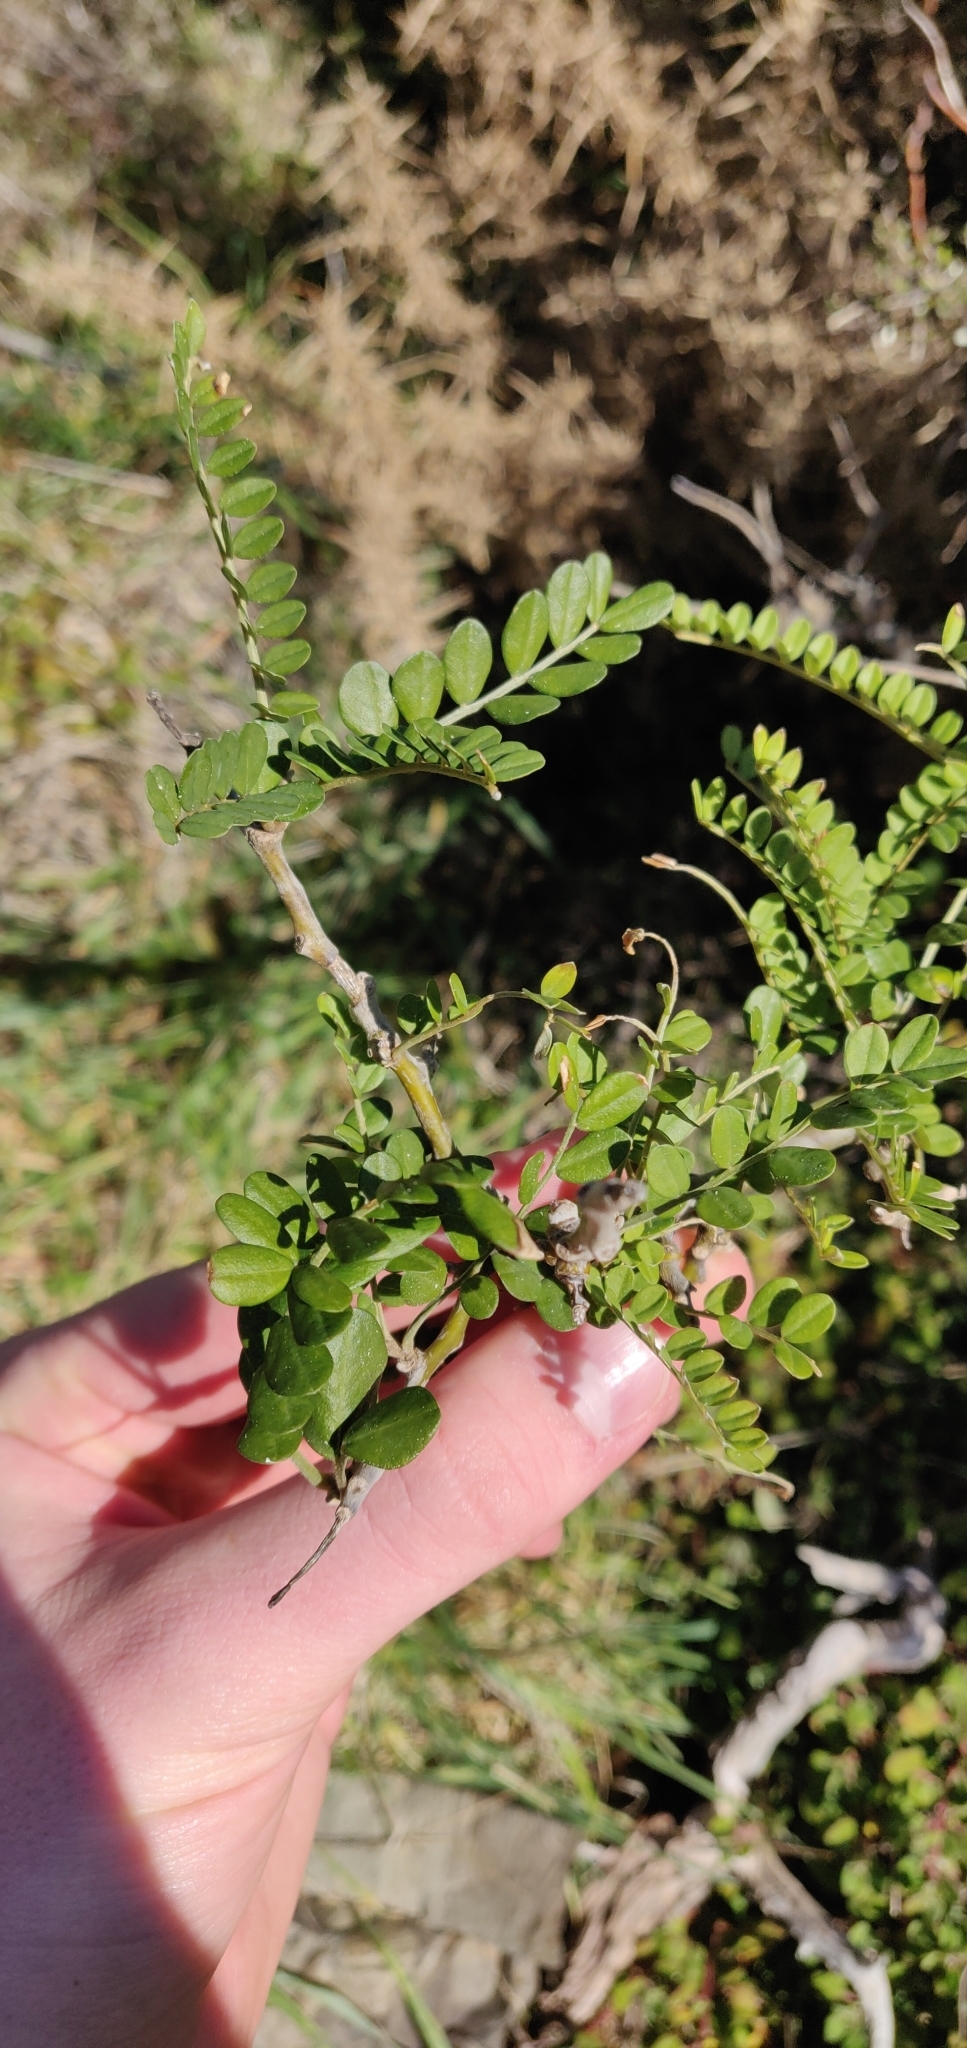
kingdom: Plantae
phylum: Tracheophyta
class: Magnoliopsida
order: Fabales
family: Fabaceae
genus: Sophora
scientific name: Sophora molloyi
